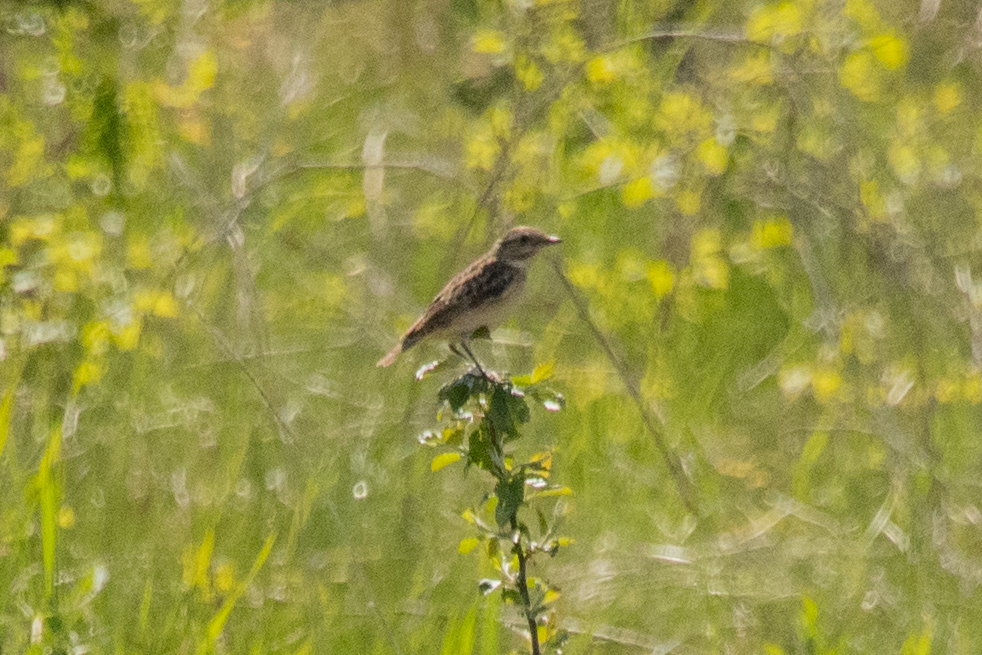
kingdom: Animalia
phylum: Chordata
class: Aves
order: Passeriformes
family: Muscicapidae
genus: Saxicola
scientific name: Saxicola rubetra
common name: Whinchat
